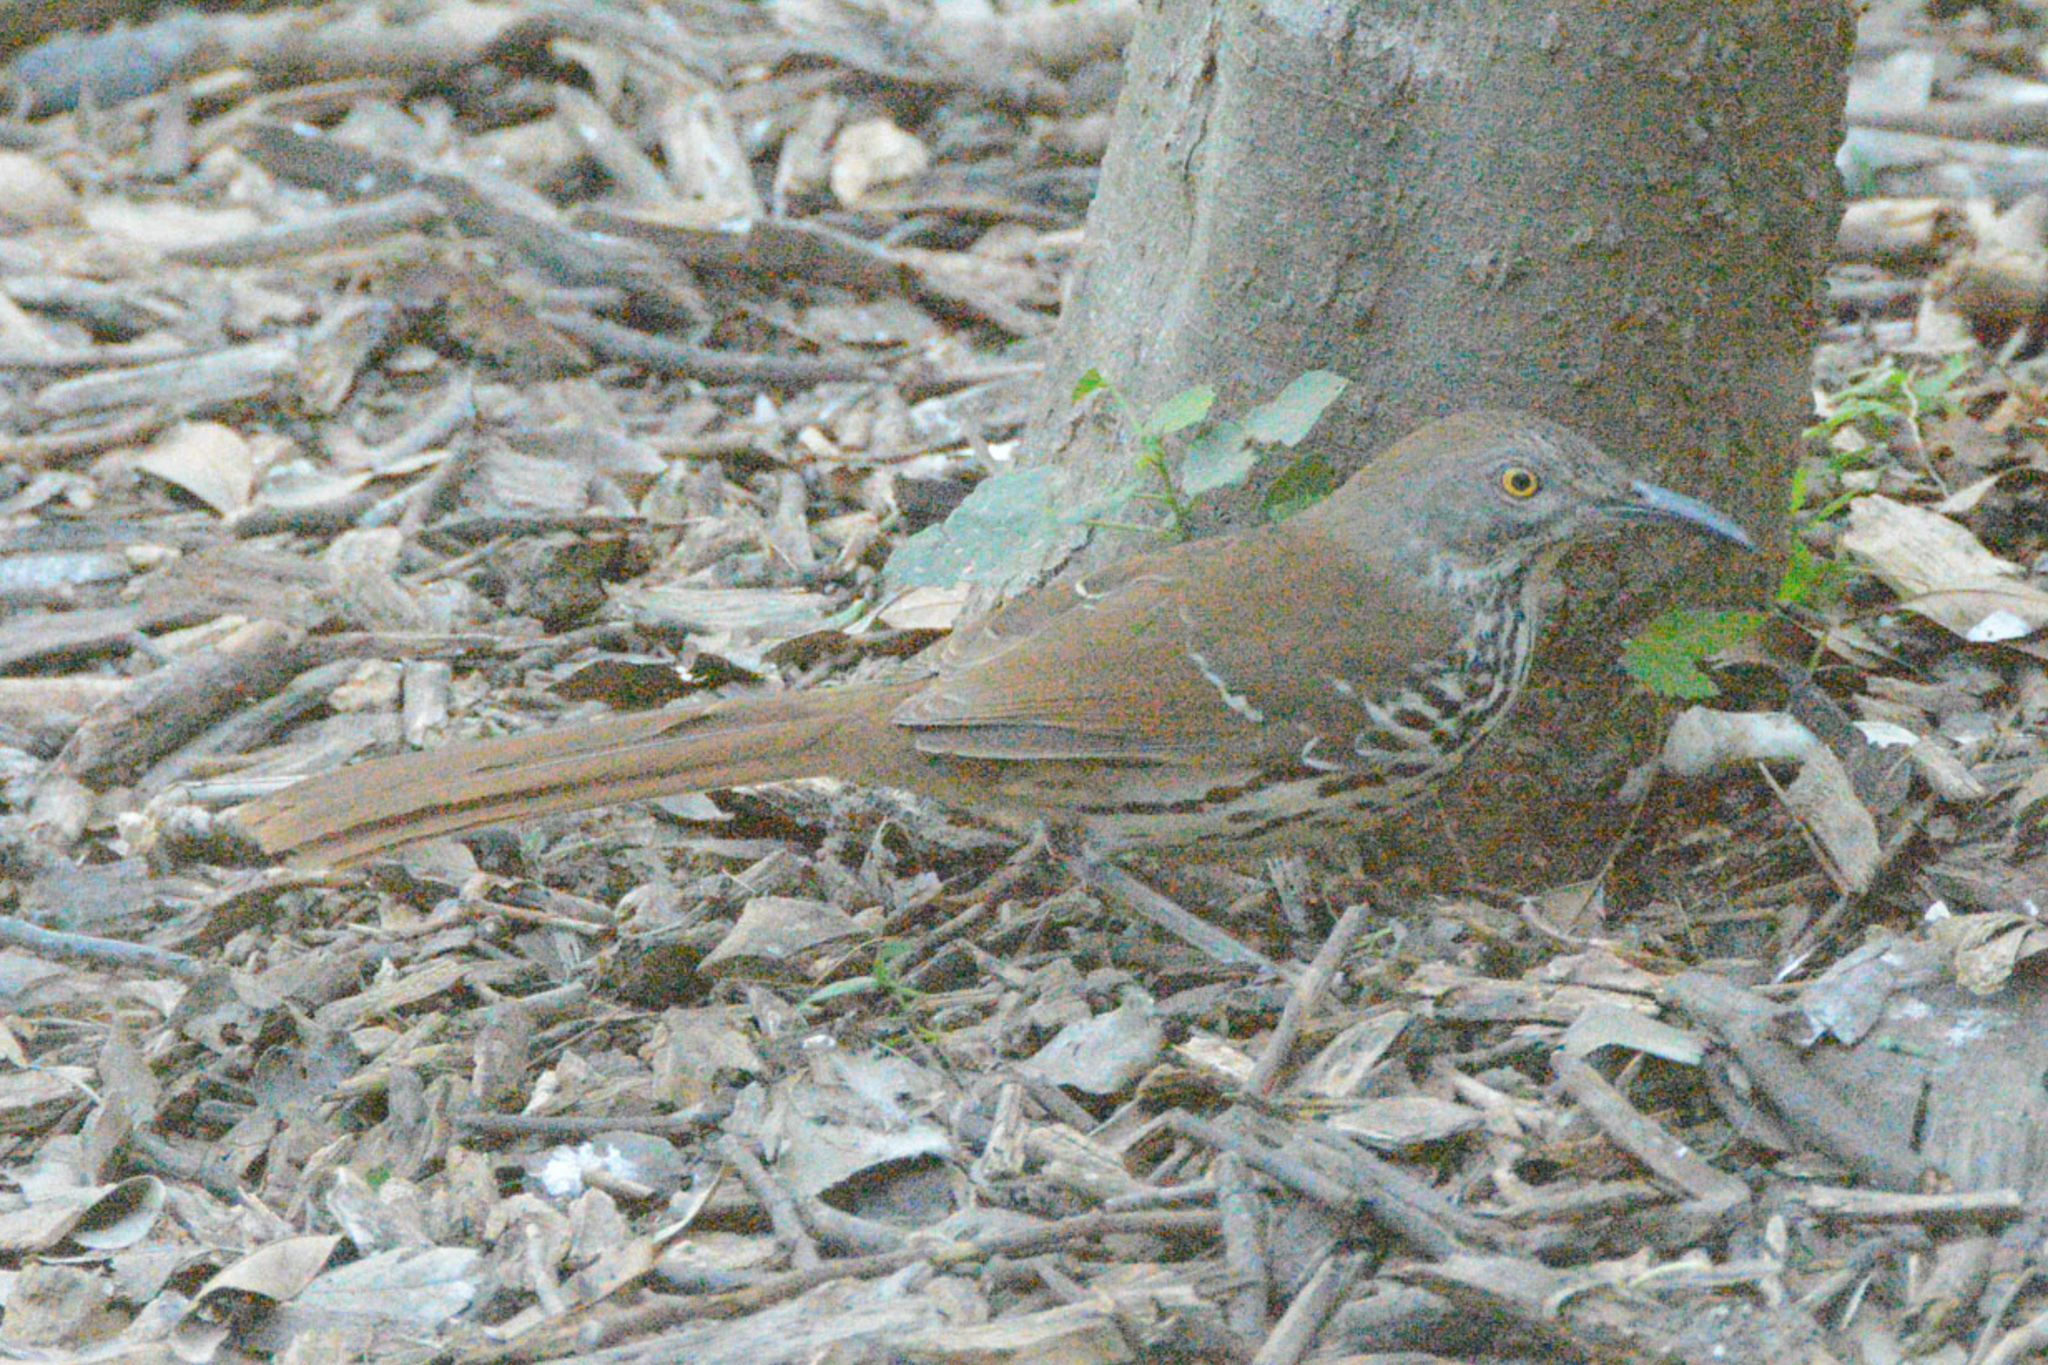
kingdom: Animalia
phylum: Chordata
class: Aves
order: Passeriformes
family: Mimidae
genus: Toxostoma
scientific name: Toxostoma longirostre
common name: Long-billed thrasher
